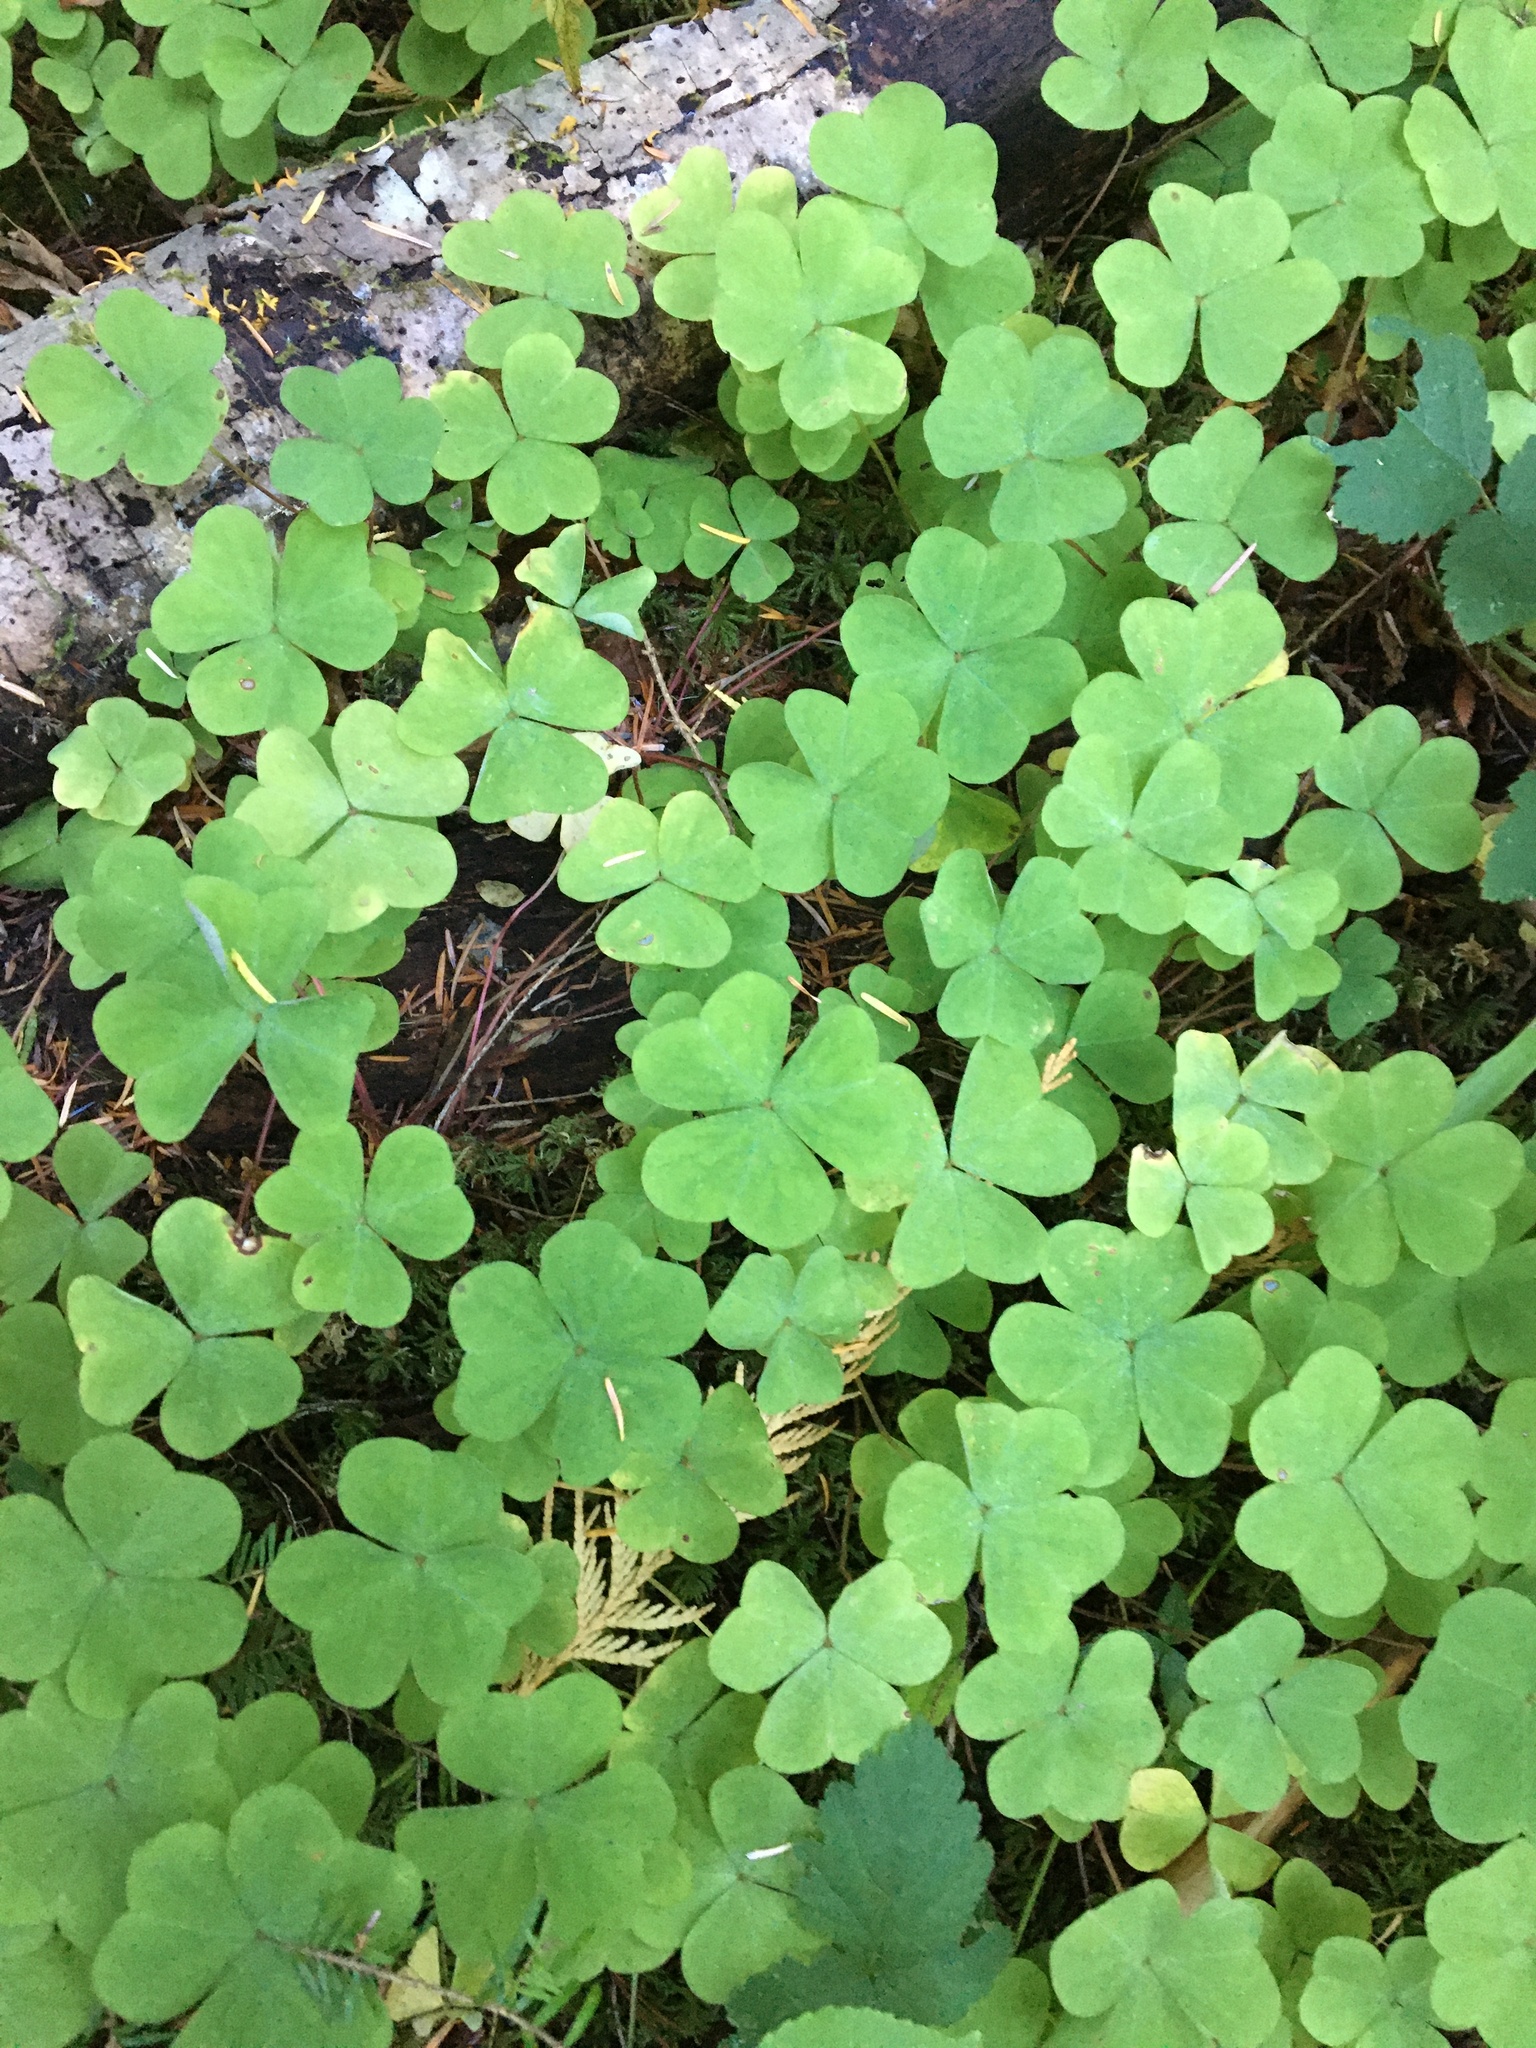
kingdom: Plantae
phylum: Tracheophyta
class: Magnoliopsida
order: Oxalidales
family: Oxalidaceae
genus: Oxalis
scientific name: Oxalis oregana
